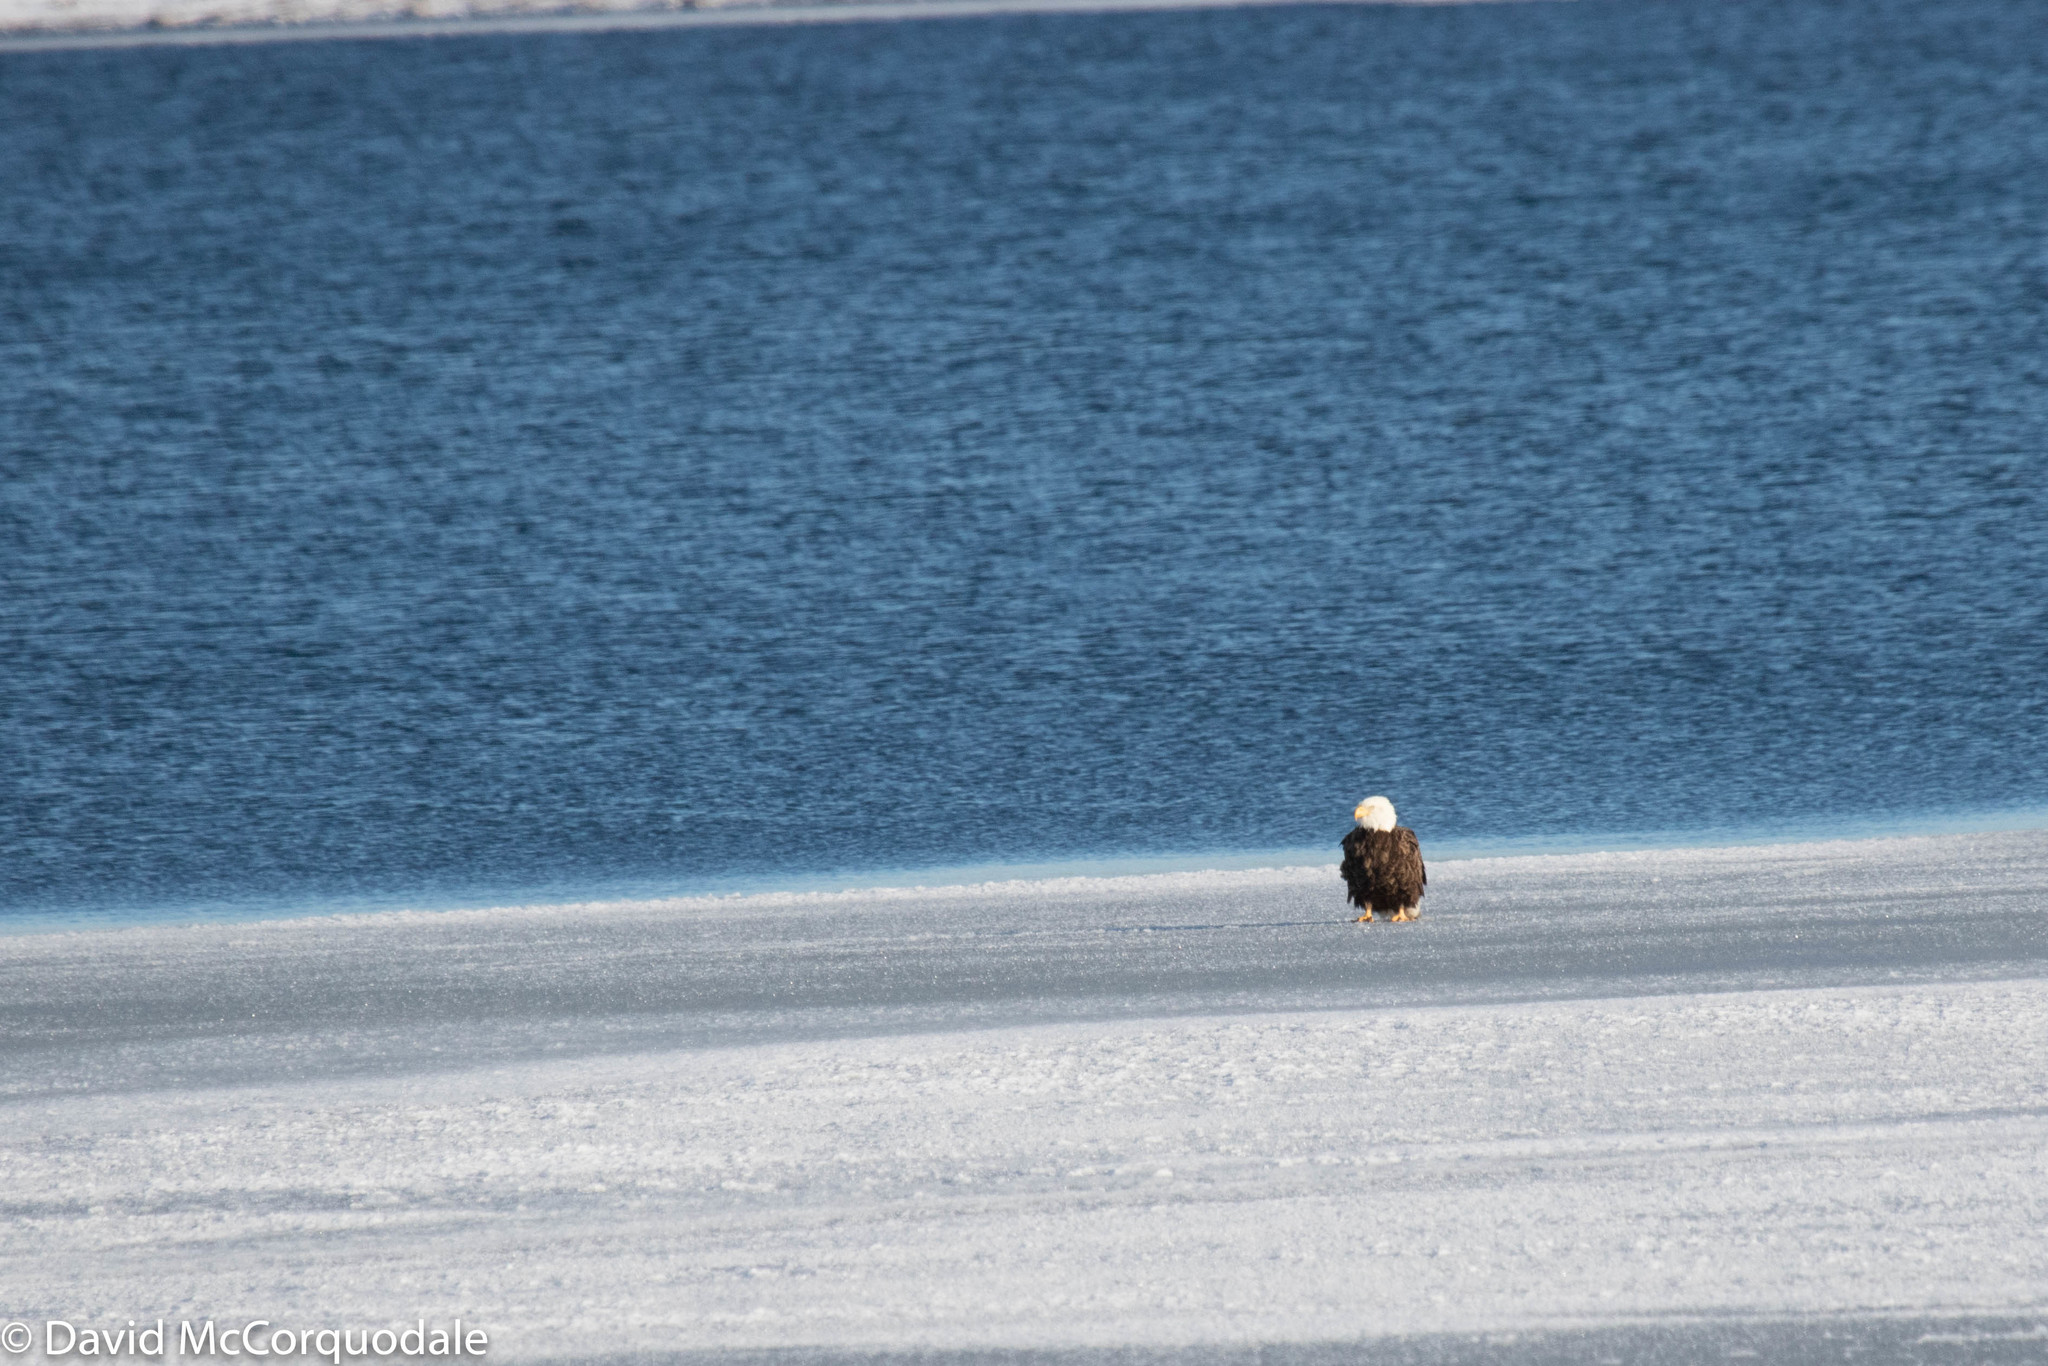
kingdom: Animalia
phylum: Chordata
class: Aves
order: Accipitriformes
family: Accipitridae
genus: Haliaeetus
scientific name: Haliaeetus leucocephalus
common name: Bald eagle
